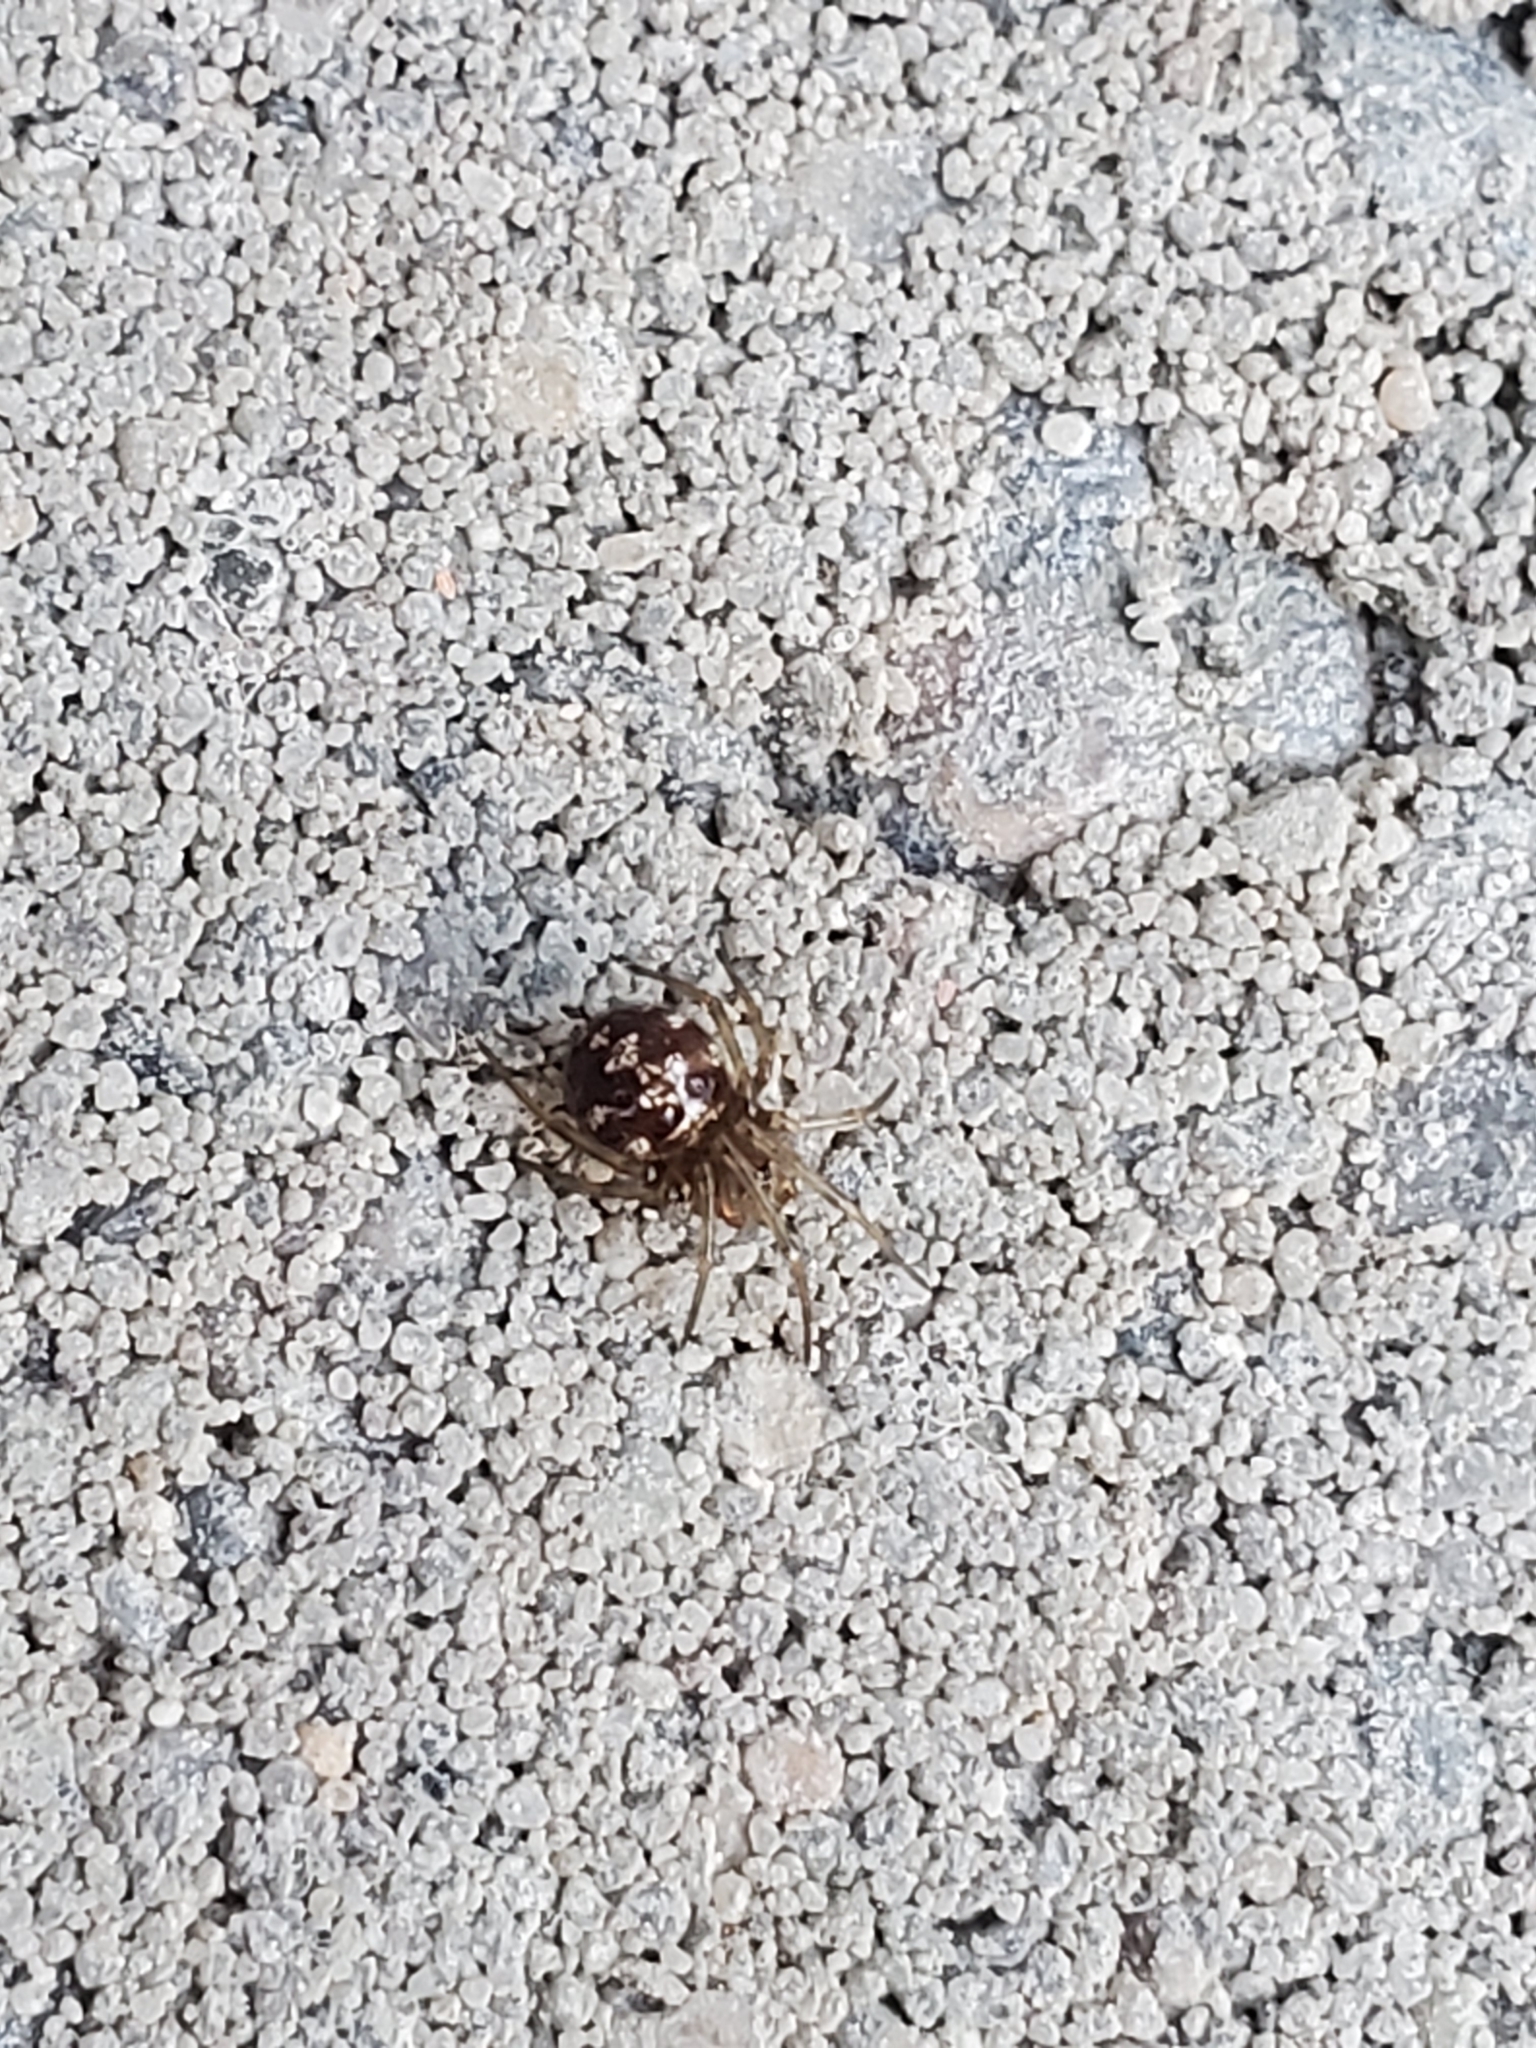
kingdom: Animalia
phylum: Arthropoda
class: Arachnida
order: Araneae
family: Theridiidae
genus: Steatoda
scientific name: Steatoda triangulosa
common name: Triangulate bud spider
